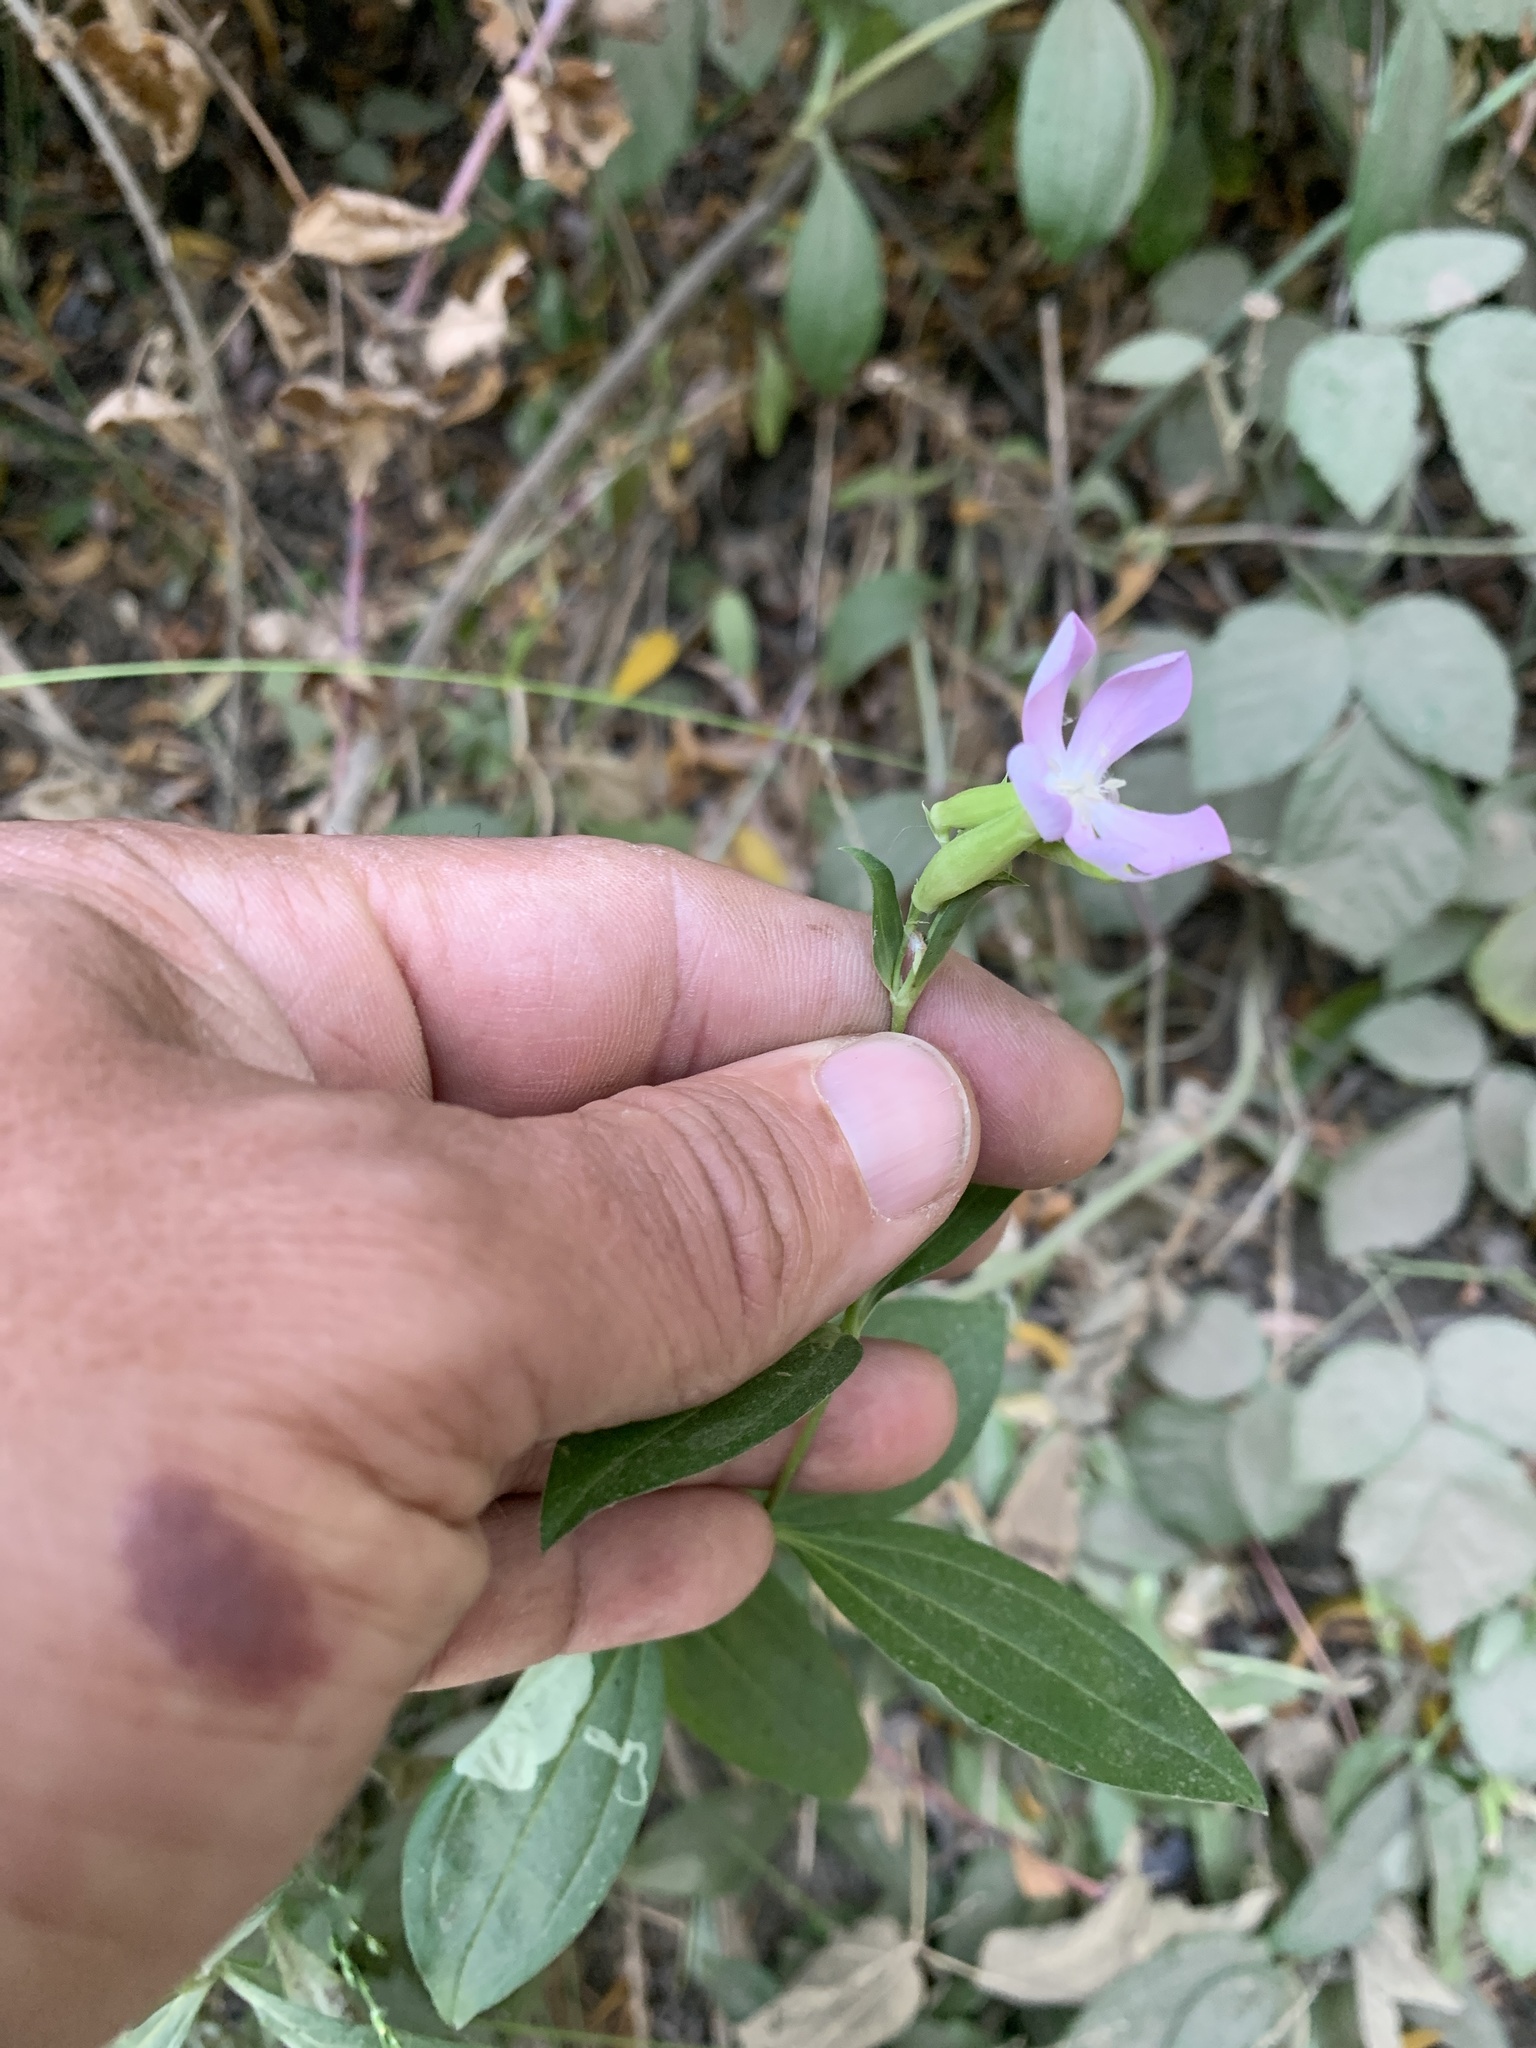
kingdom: Plantae
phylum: Tracheophyta
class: Magnoliopsida
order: Caryophyllales
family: Caryophyllaceae
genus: Saponaria
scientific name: Saponaria officinalis
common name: Soapwort
